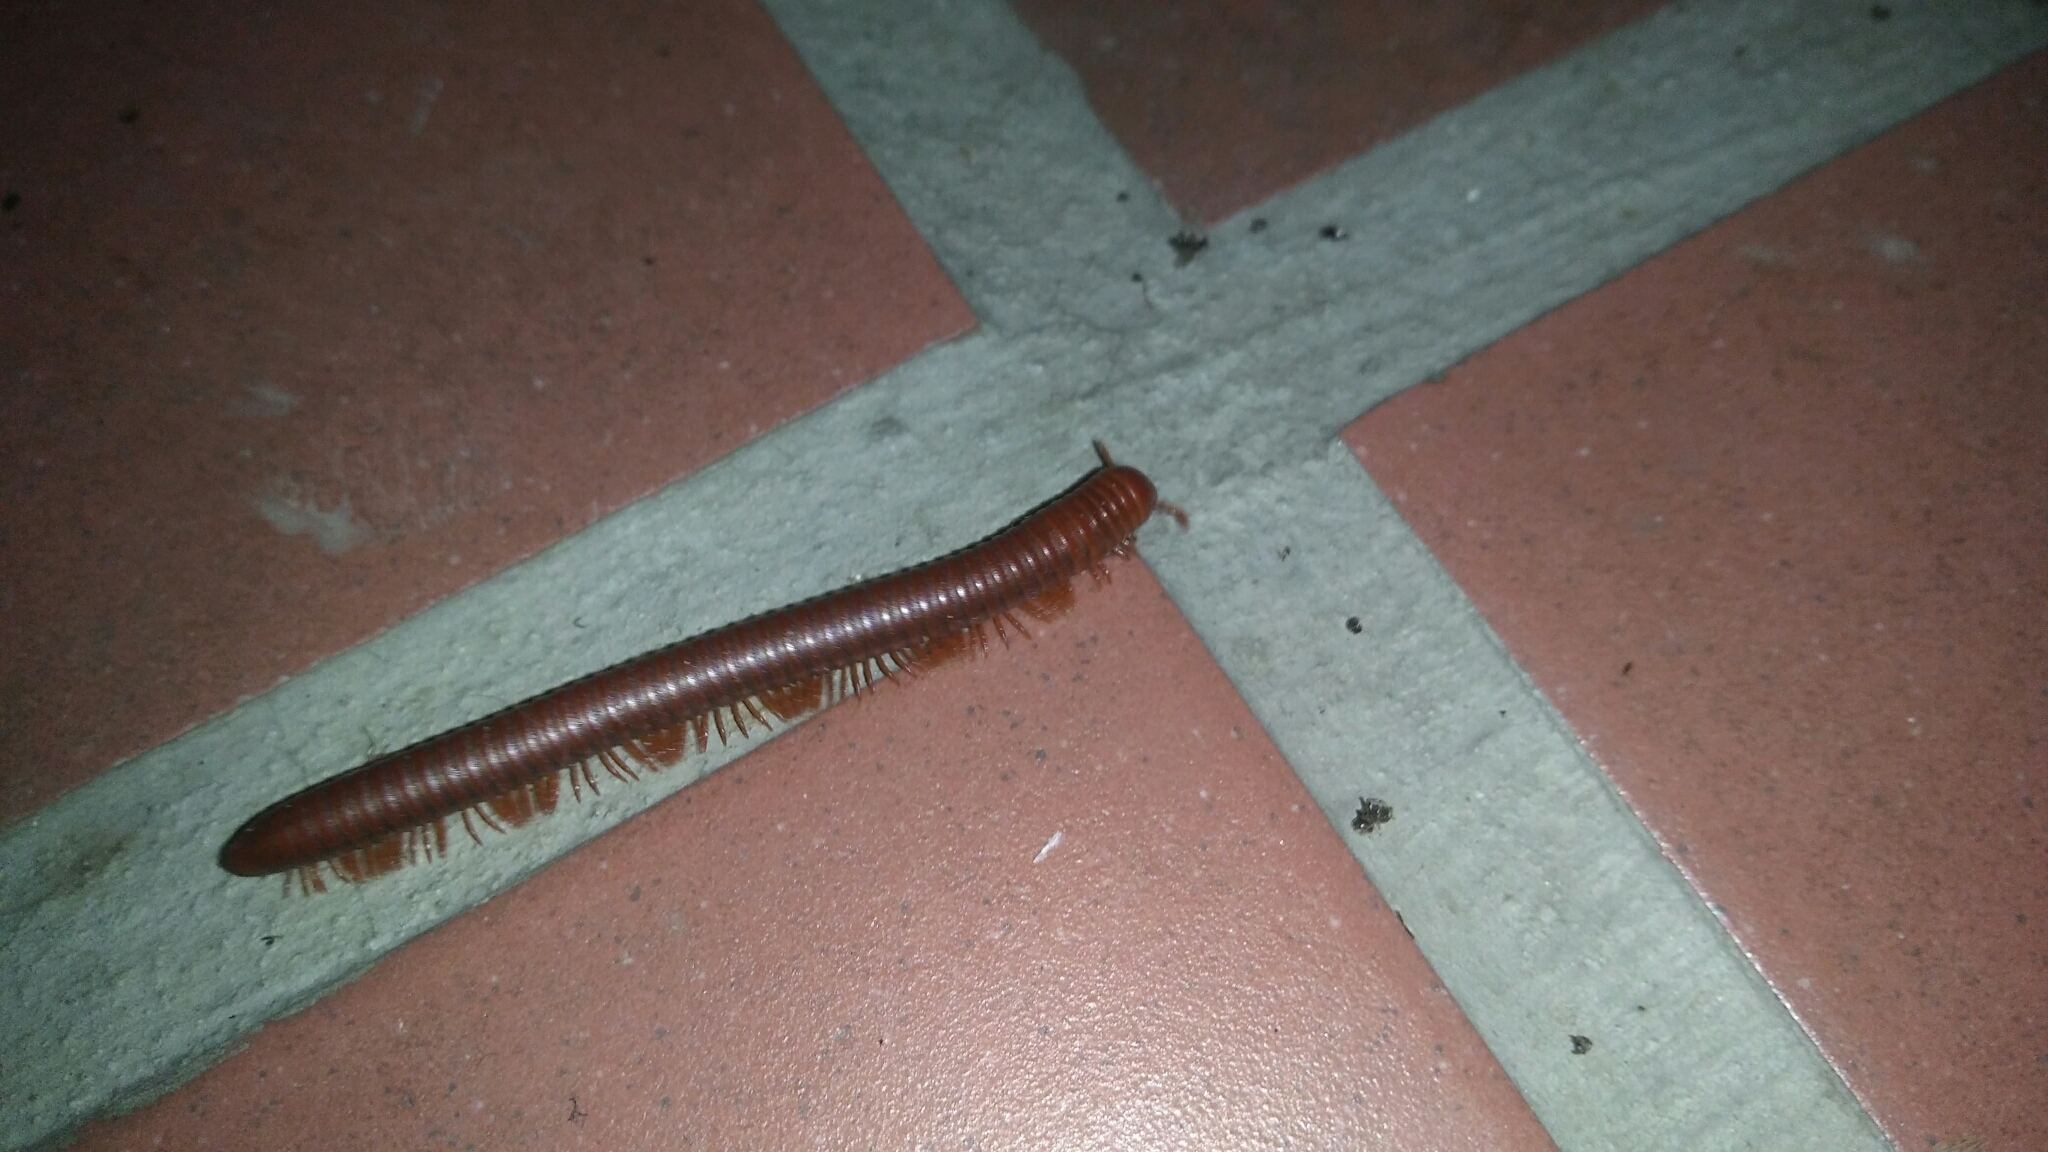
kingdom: Animalia
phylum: Arthropoda
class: Diplopoda
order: Spirobolida
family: Pachybolidae
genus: Trigoniulus
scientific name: Trigoniulus corallinus
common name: Millipede
